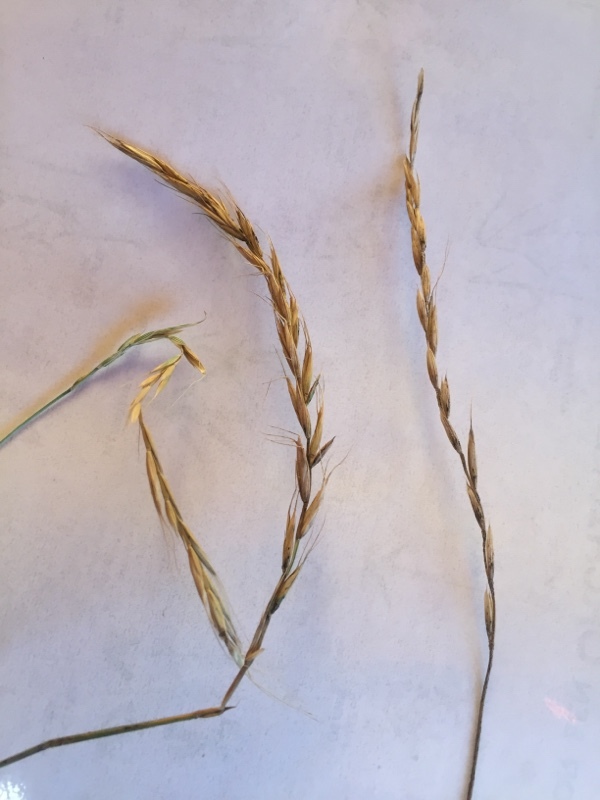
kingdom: Plantae
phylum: Tracheophyta
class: Liliopsida
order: Poales
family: Poaceae
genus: Elymus
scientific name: Elymus caninus
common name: Bearded couch
